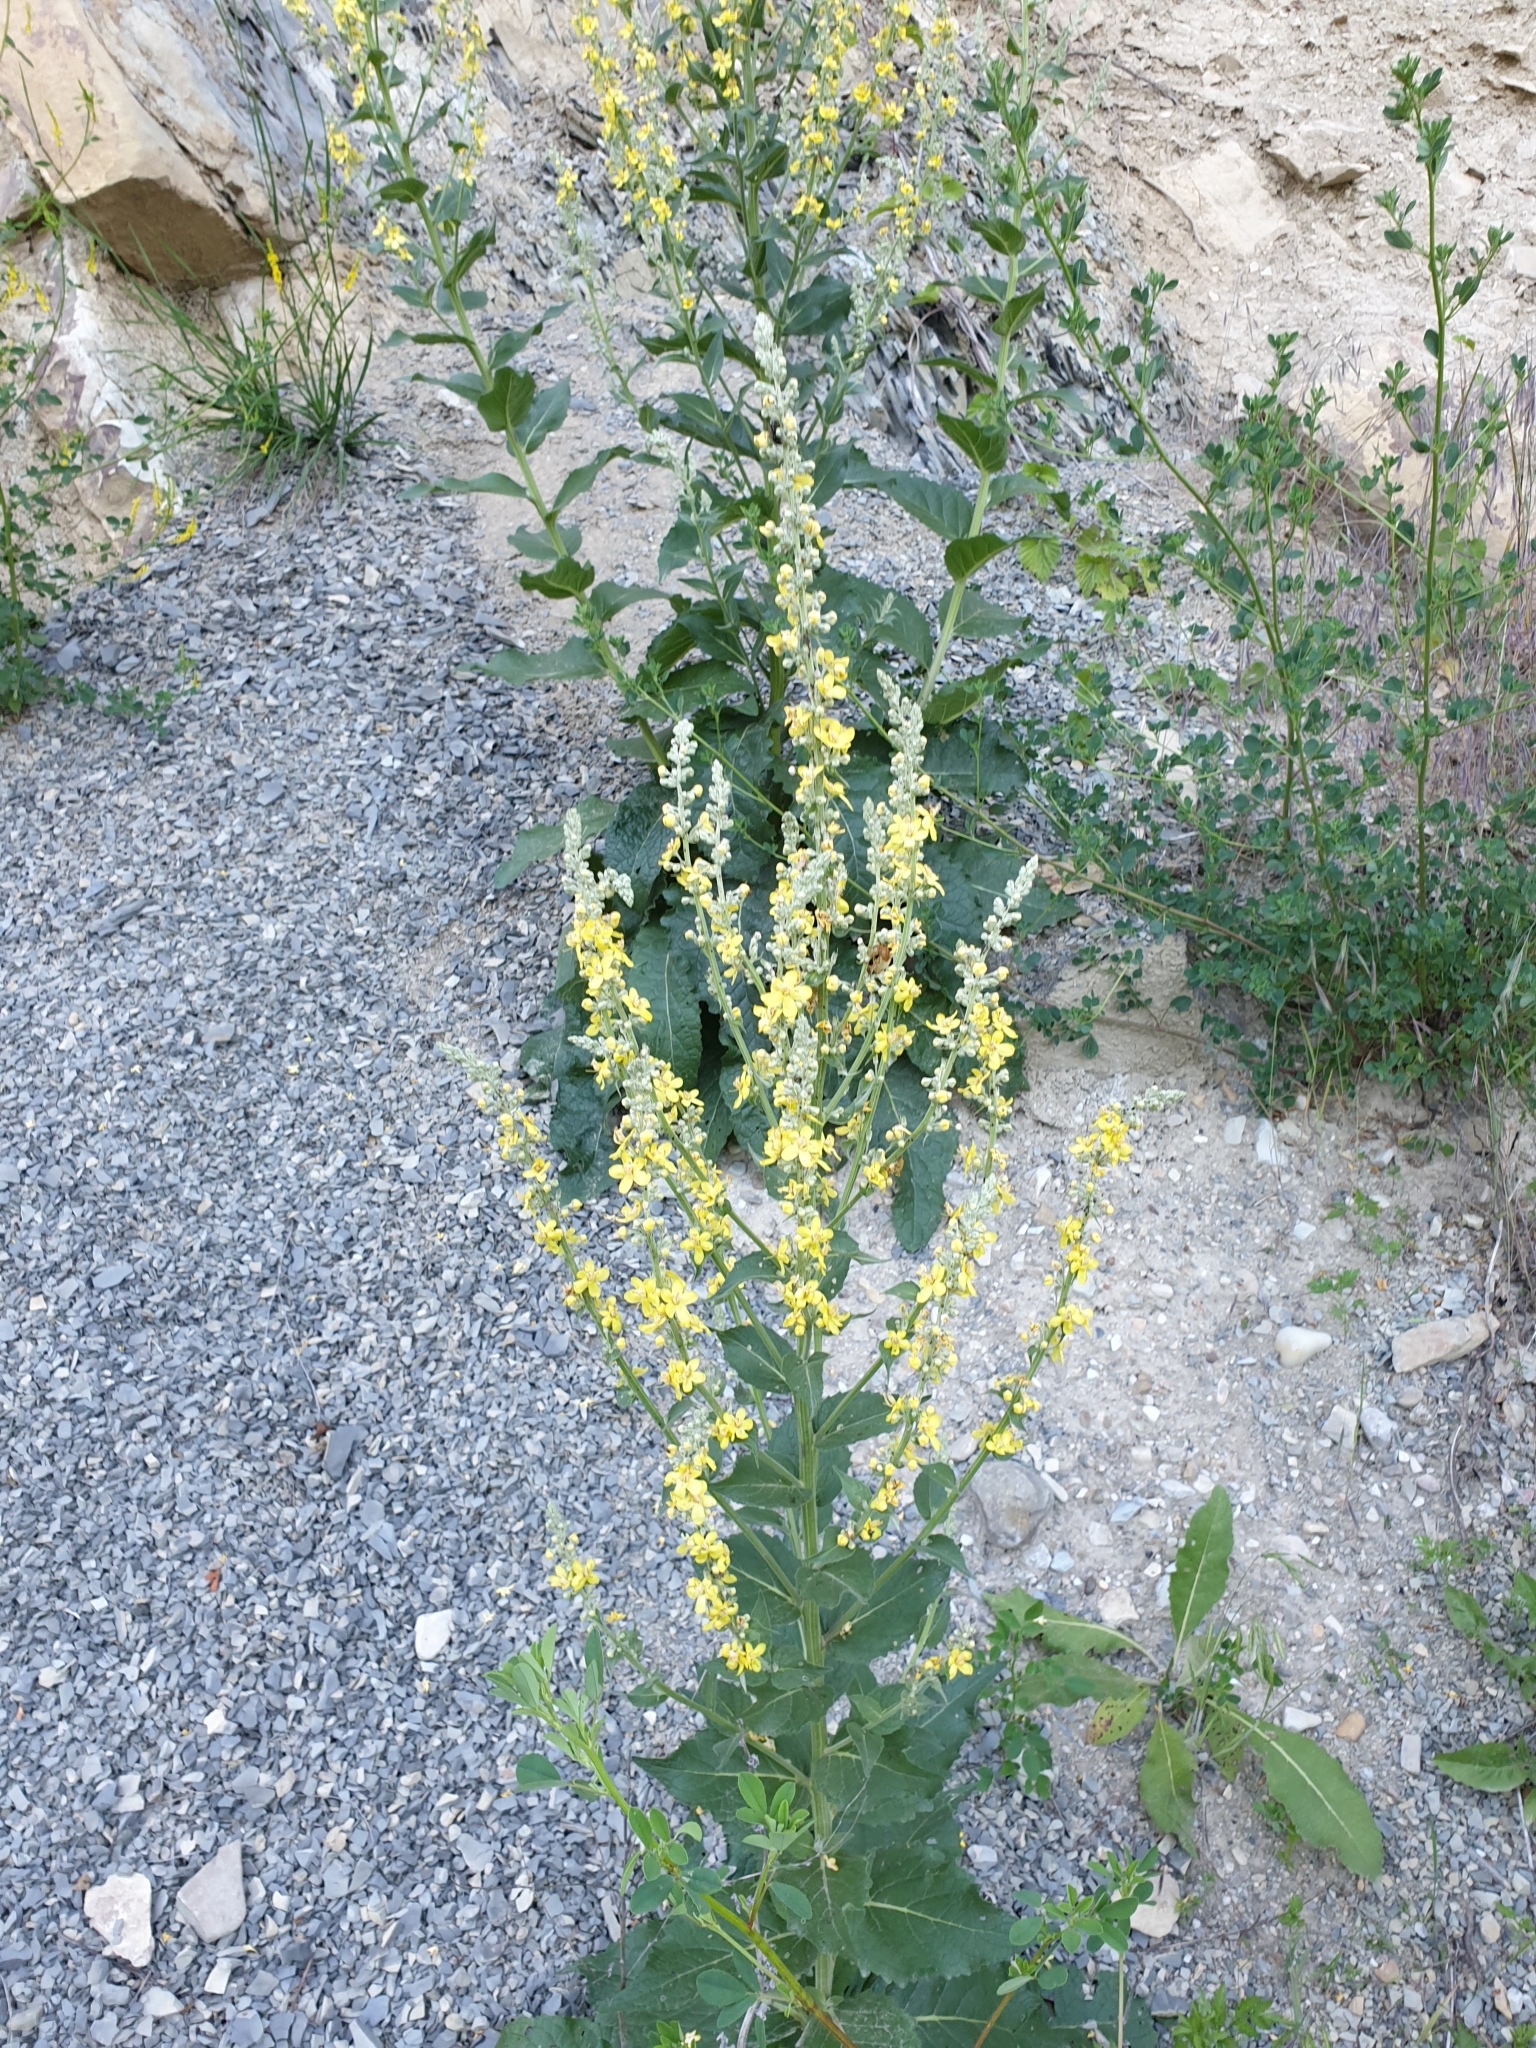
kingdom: Plantae
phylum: Tracheophyta
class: Magnoliopsida
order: Lamiales
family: Scrophulariaceae
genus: Verbascum
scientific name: Verbascum lychnitis
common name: White mullein
